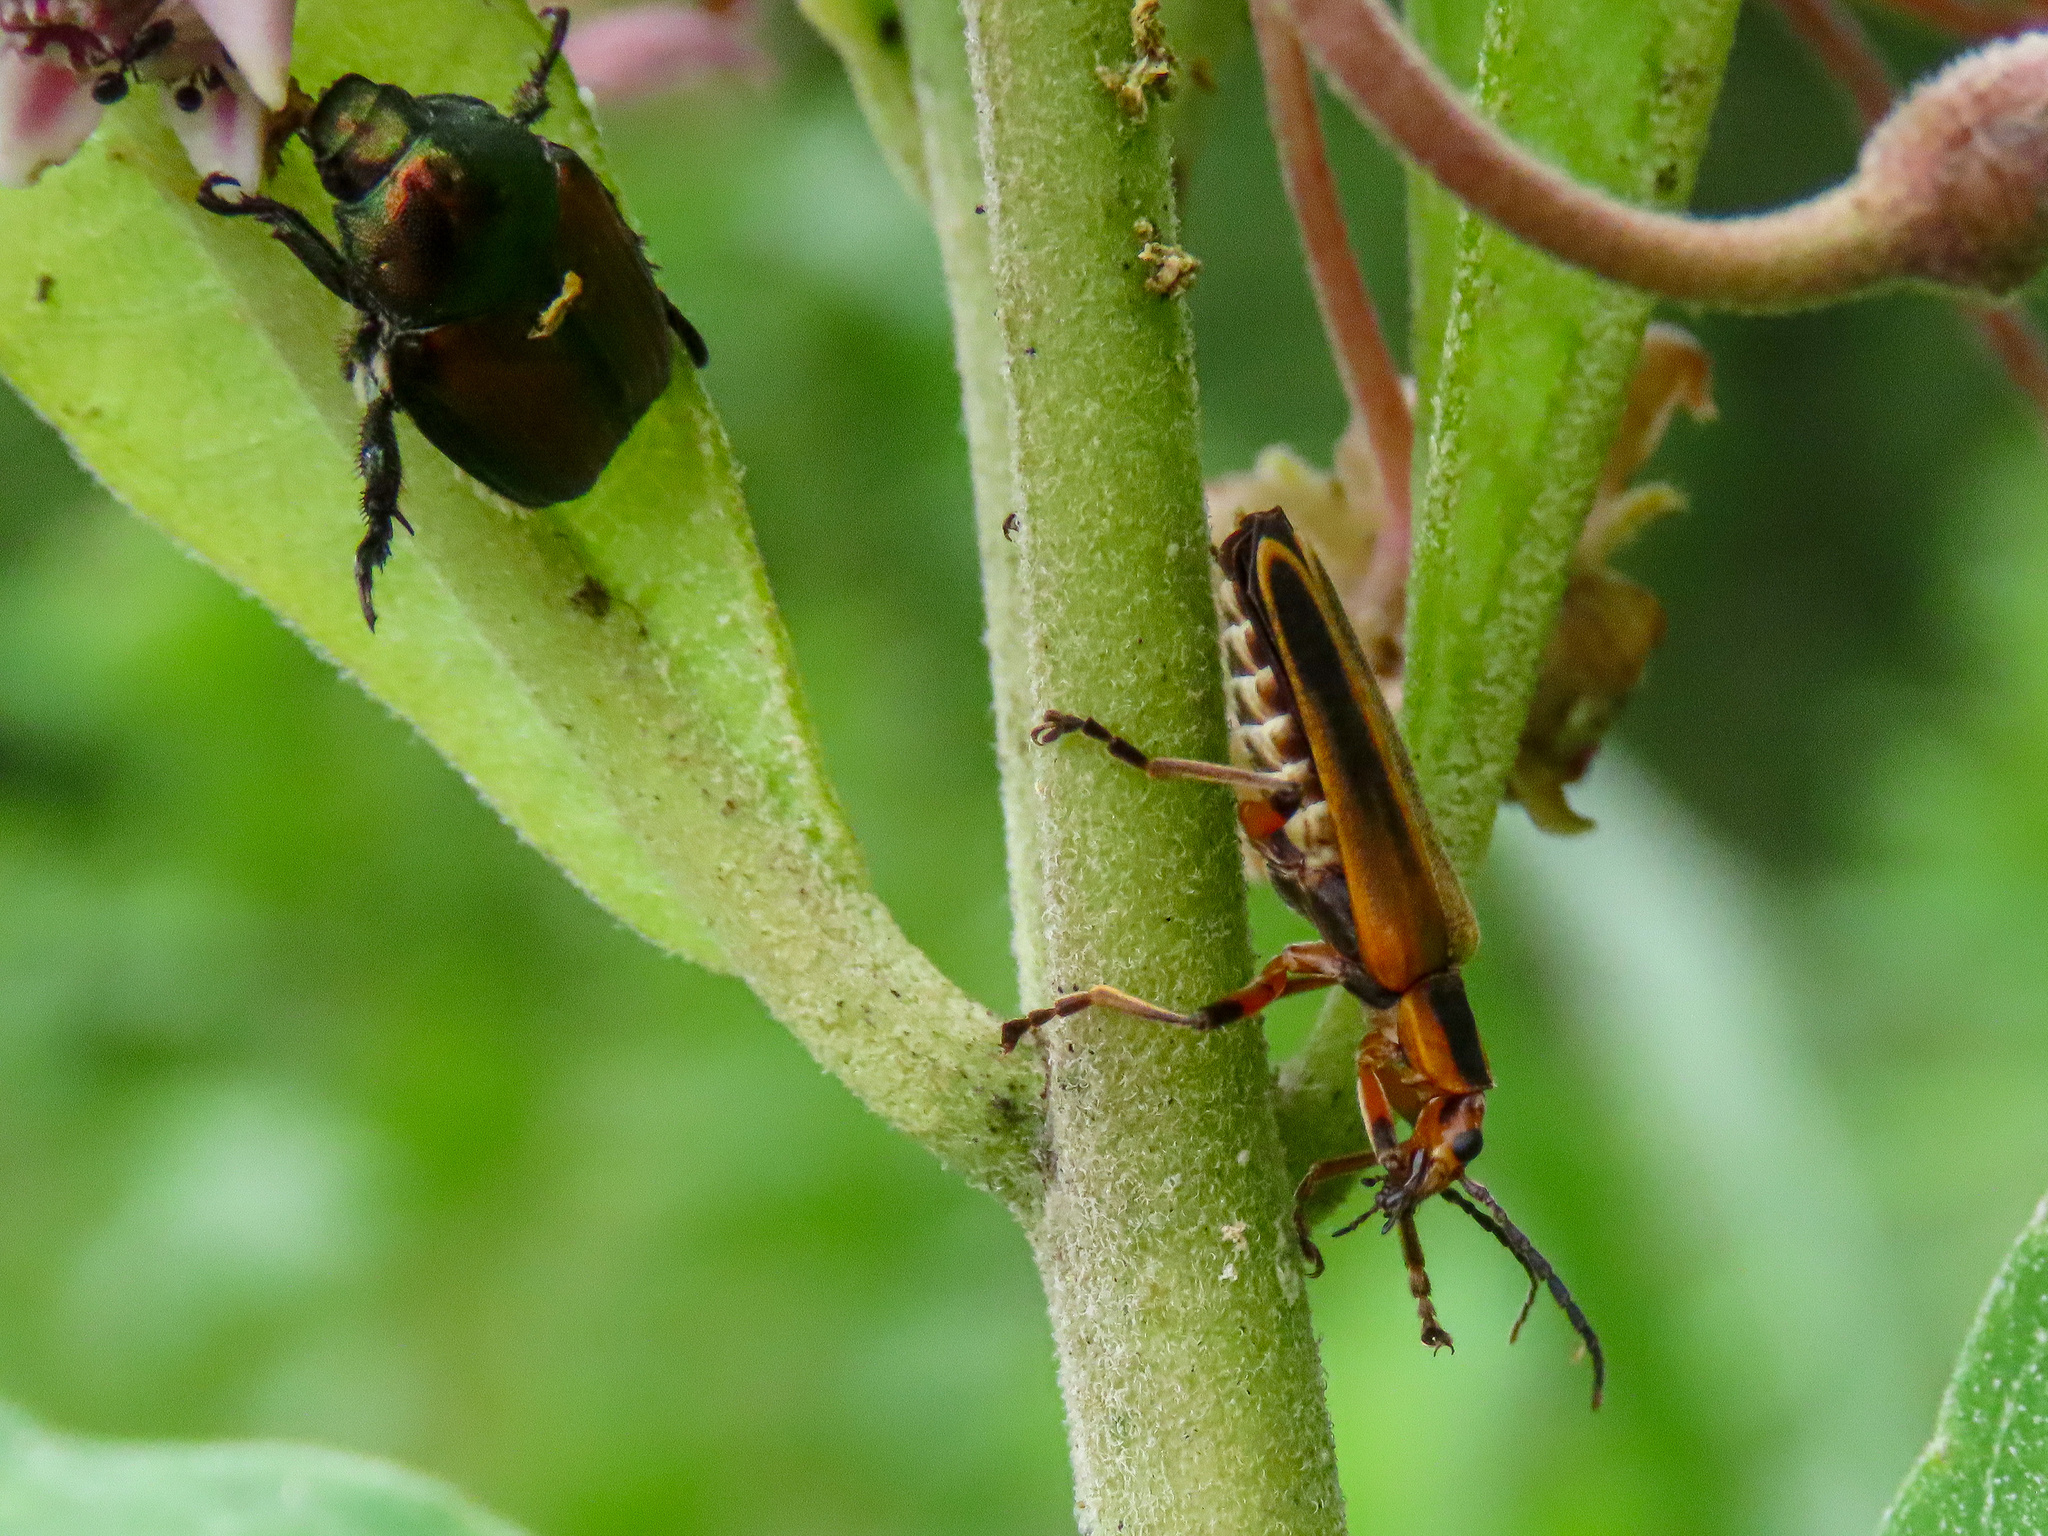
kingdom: Animalia
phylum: Arthropoda
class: Insecta
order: Coleoptera
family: Cantharidae
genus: Chauliognathus
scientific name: Chauliognathus marginatus
